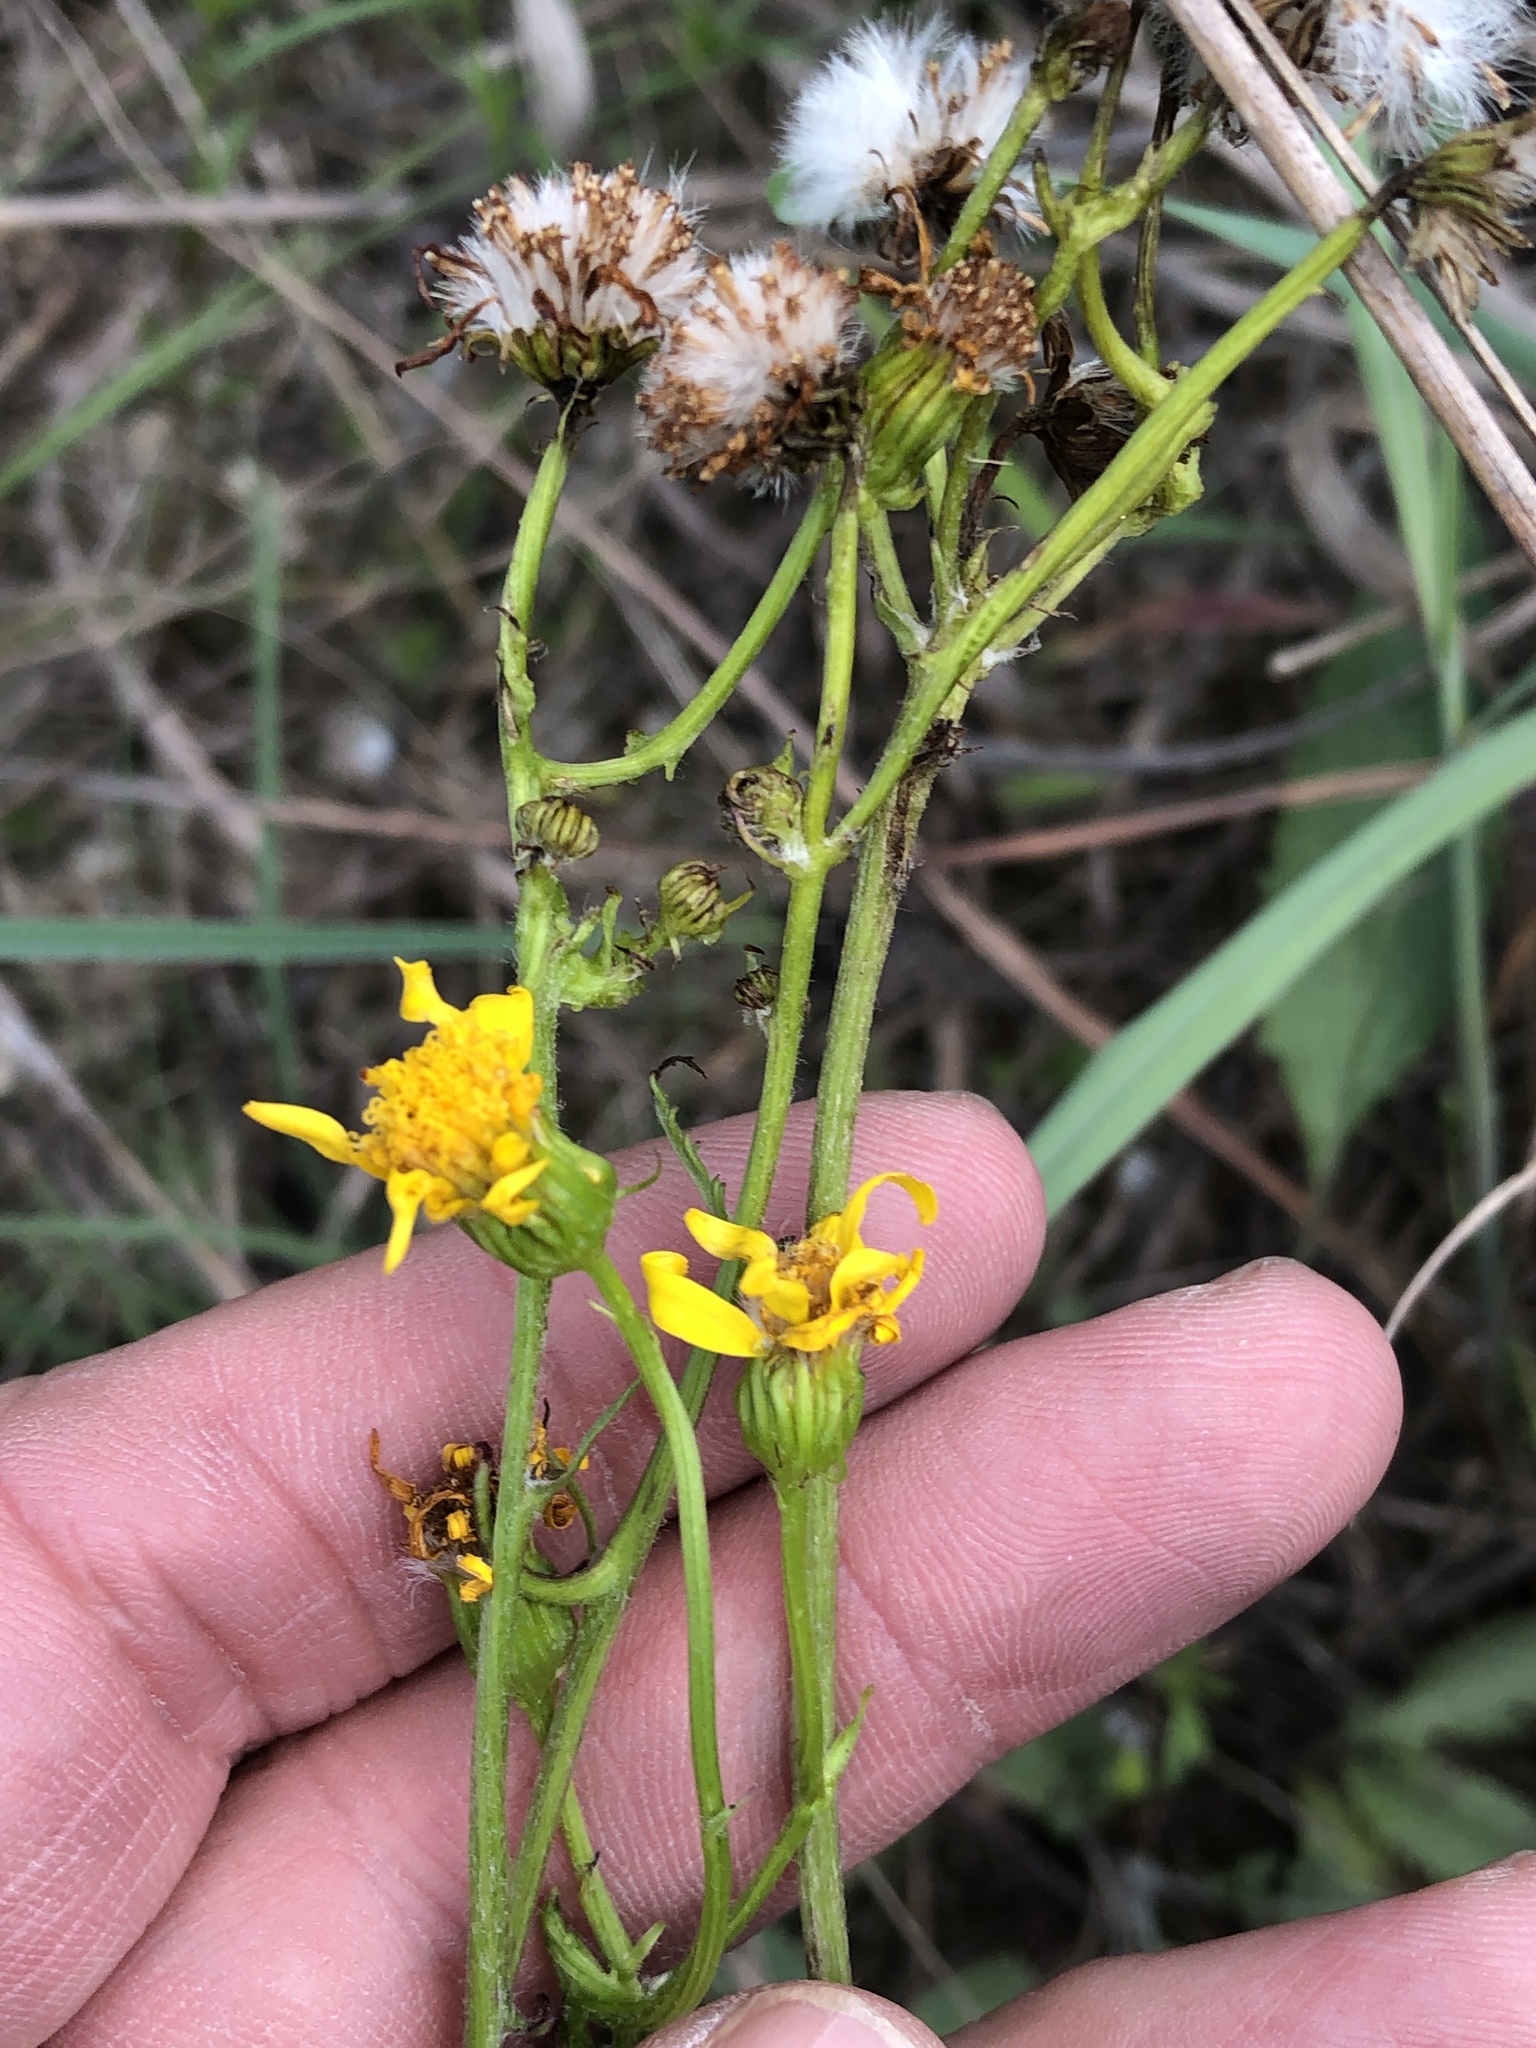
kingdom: Plantae
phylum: Tracheophyta
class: Magnoliopsida
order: Asterales
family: Asteraceae
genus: Packera
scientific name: Packera plattensis
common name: Prairie groundsel
